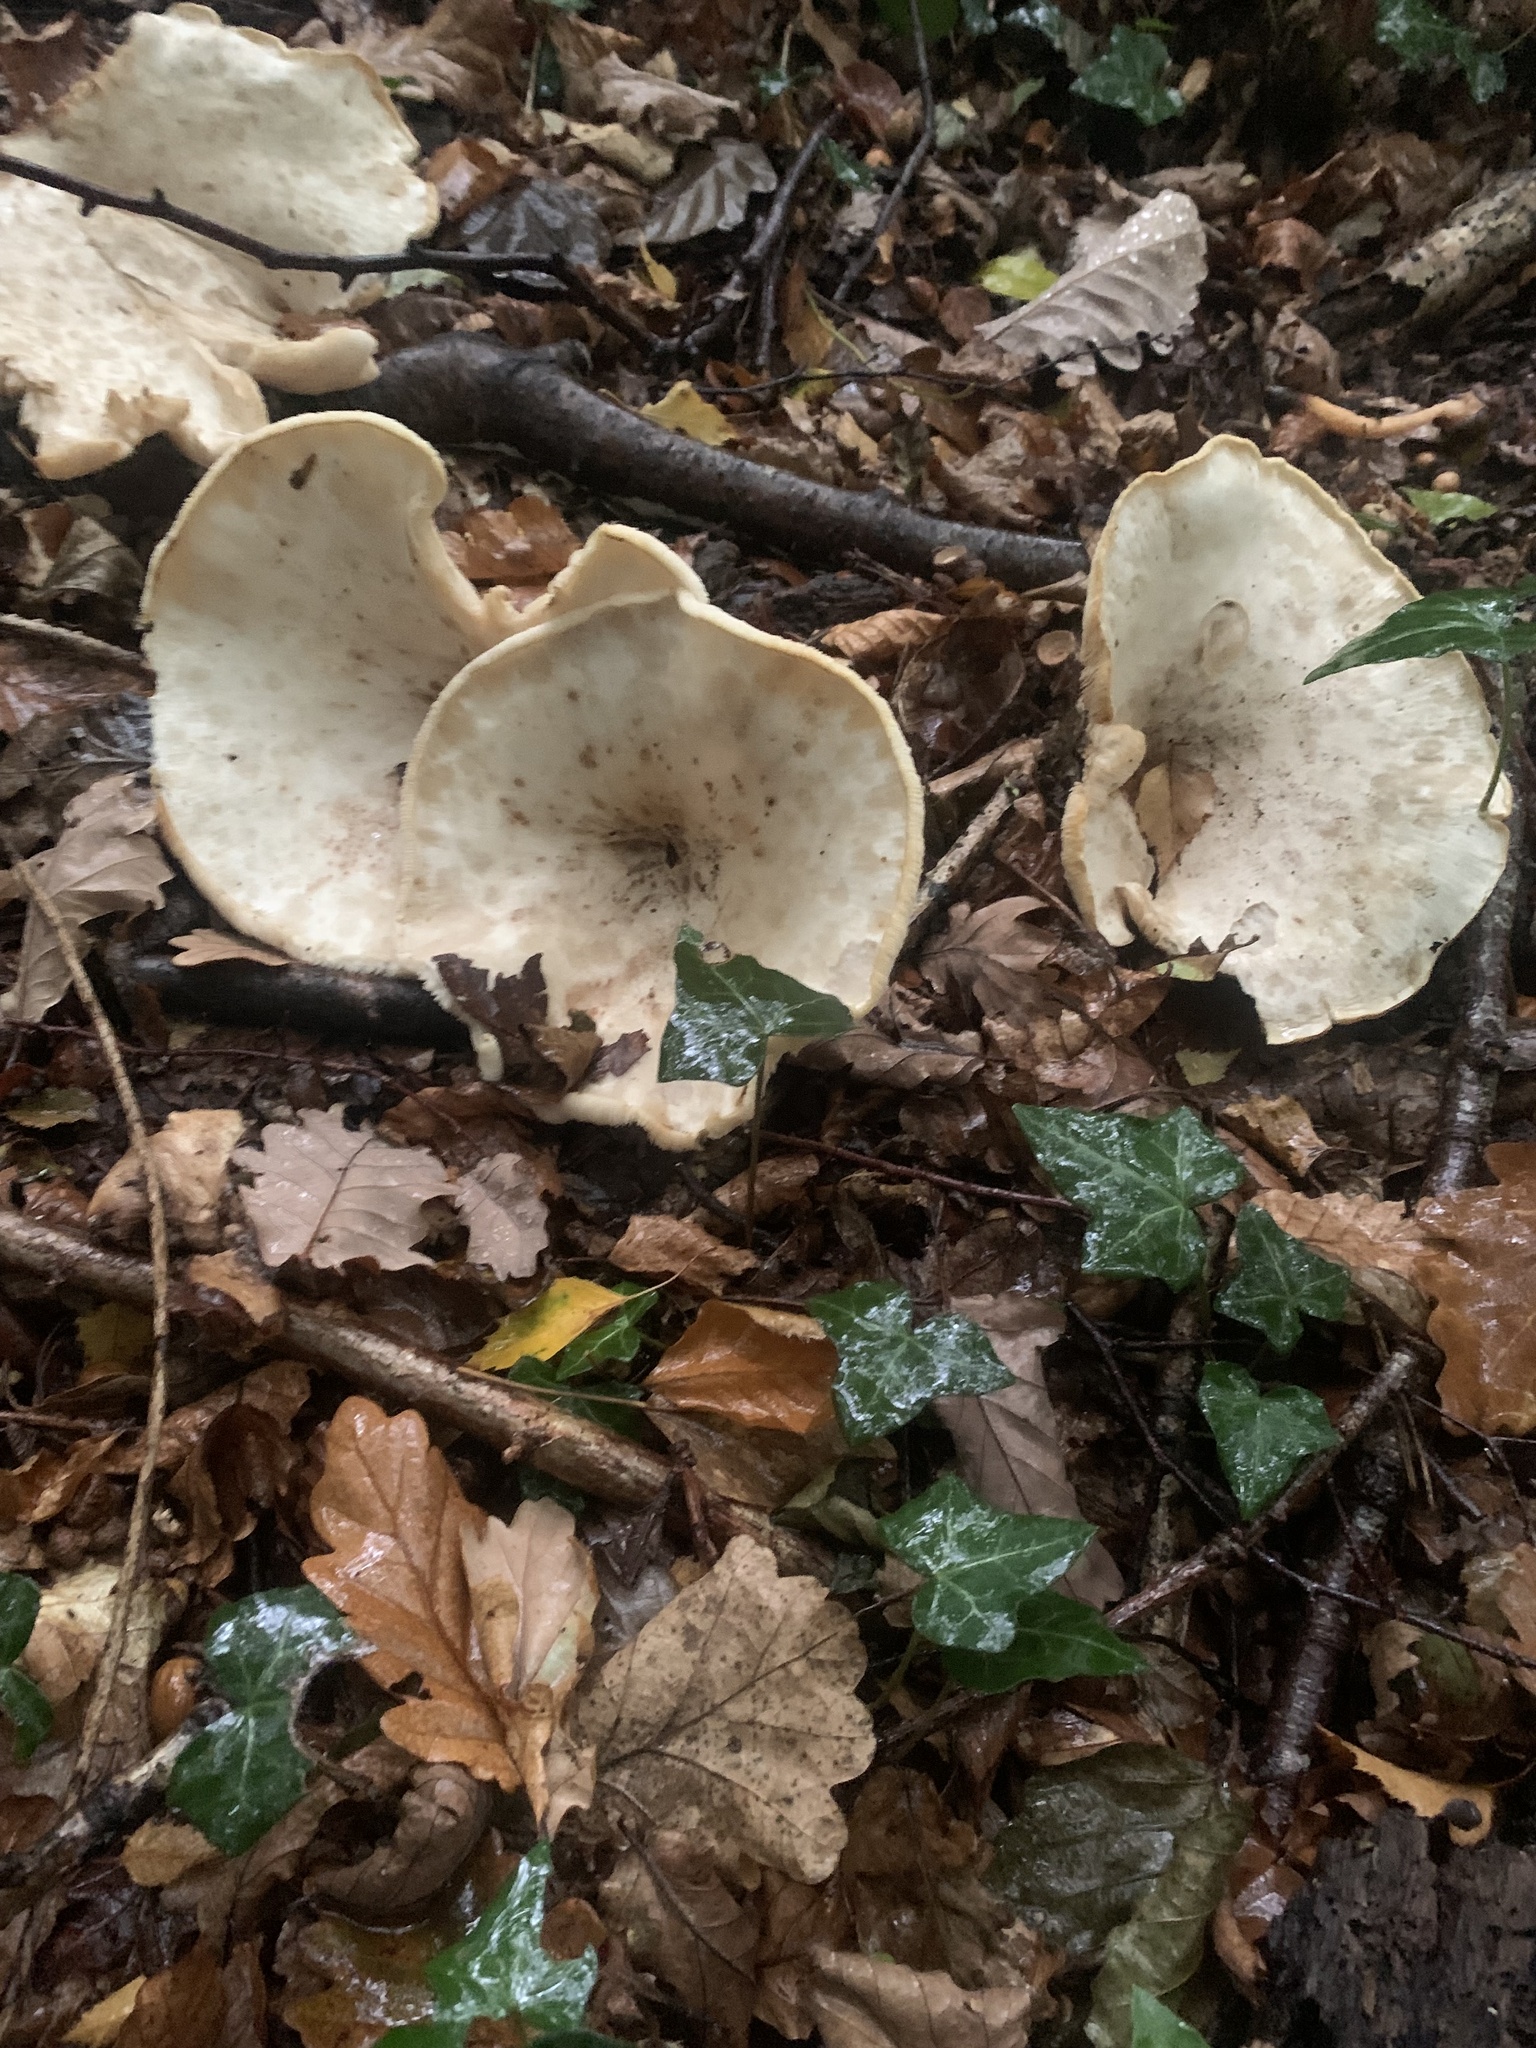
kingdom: Fungi
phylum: Basidiomycota
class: Agaricomycetes
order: Agaricales
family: Tricholomataceae
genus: Infundibulicybe
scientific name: Infundibulicybe geotropa
